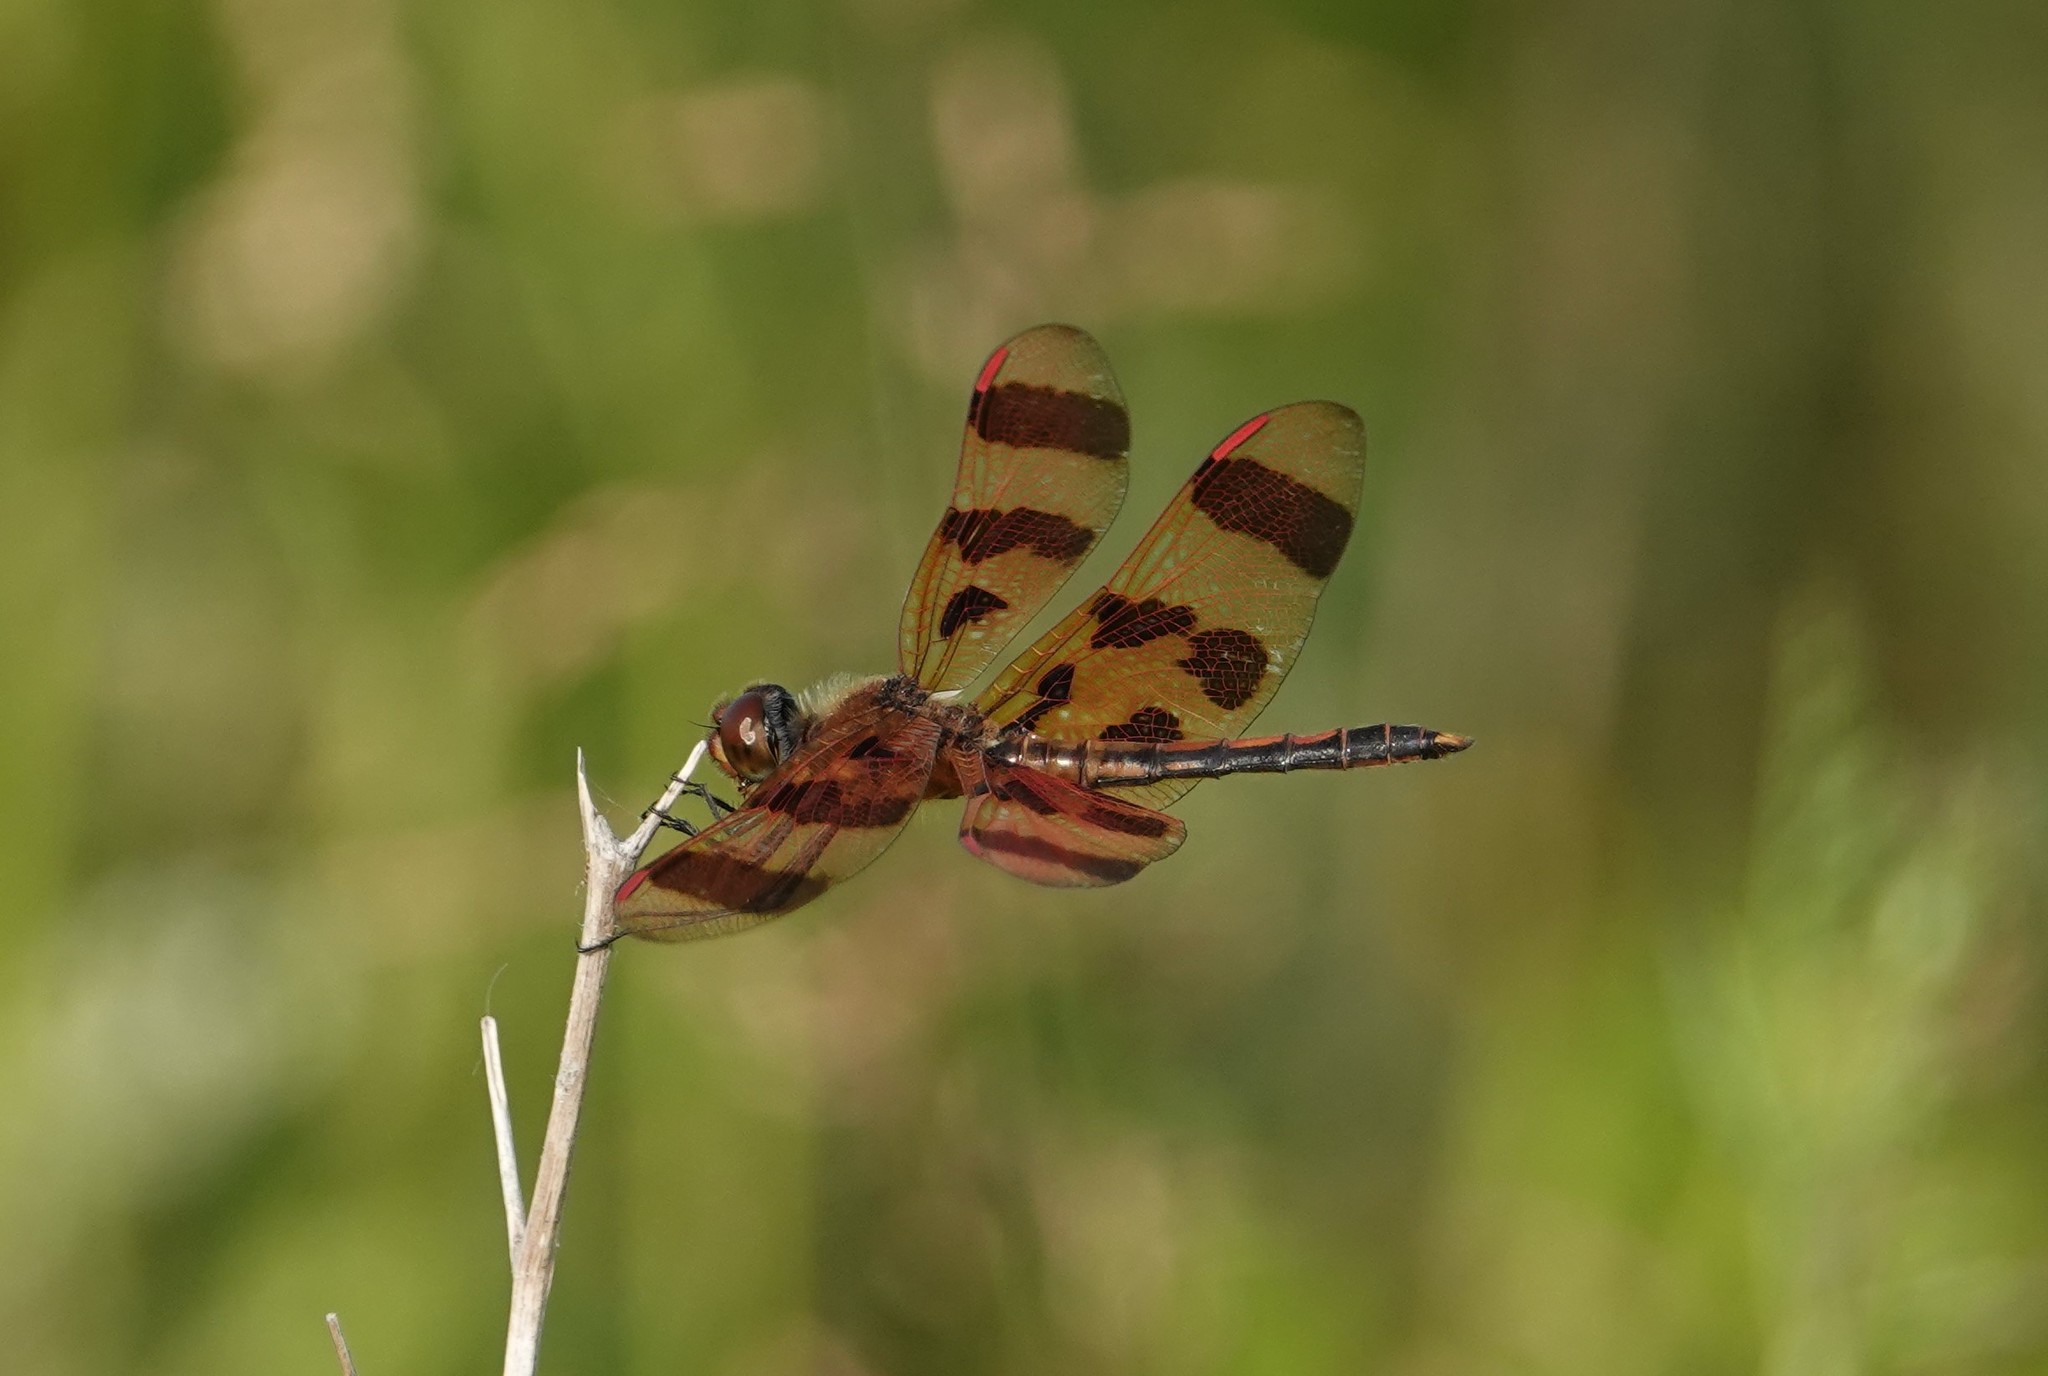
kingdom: Animalia
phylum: Arthropoda
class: Insecta
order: Odonata
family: Libellulidae
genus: Celithemis
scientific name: Celithemis eponina
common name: Halloween pennant
